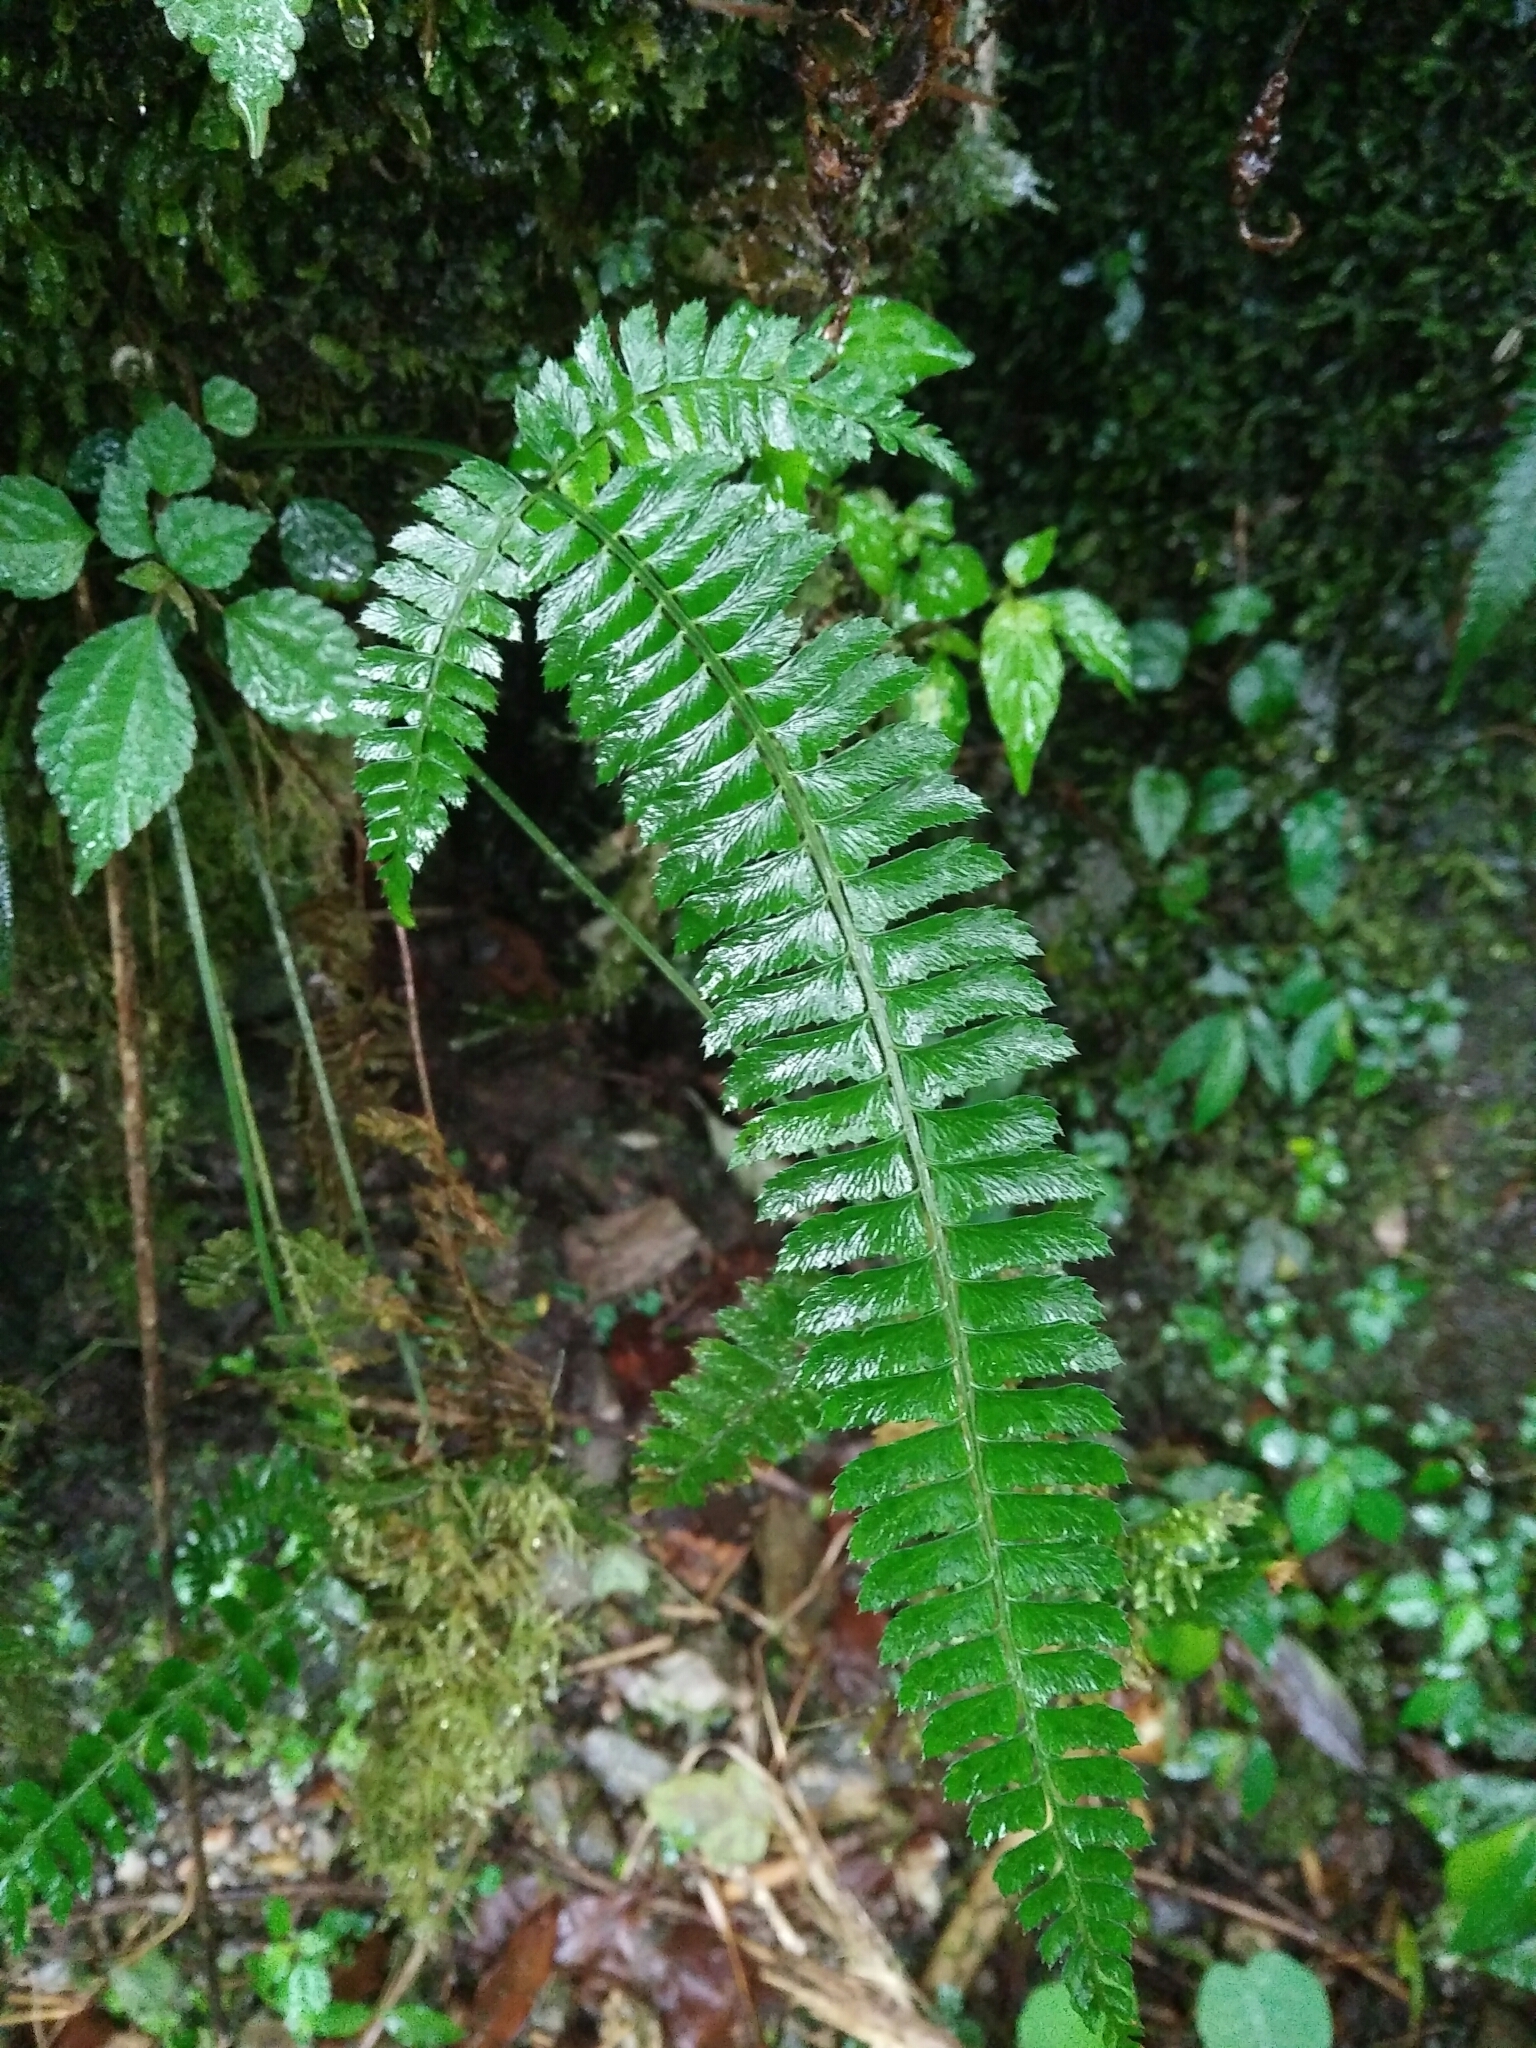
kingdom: Plantae
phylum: Tracheophyta
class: Polypodiopsida
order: Polypodiales
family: Dryopteridaceae
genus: Polystichum
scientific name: Polystichum hancockii
